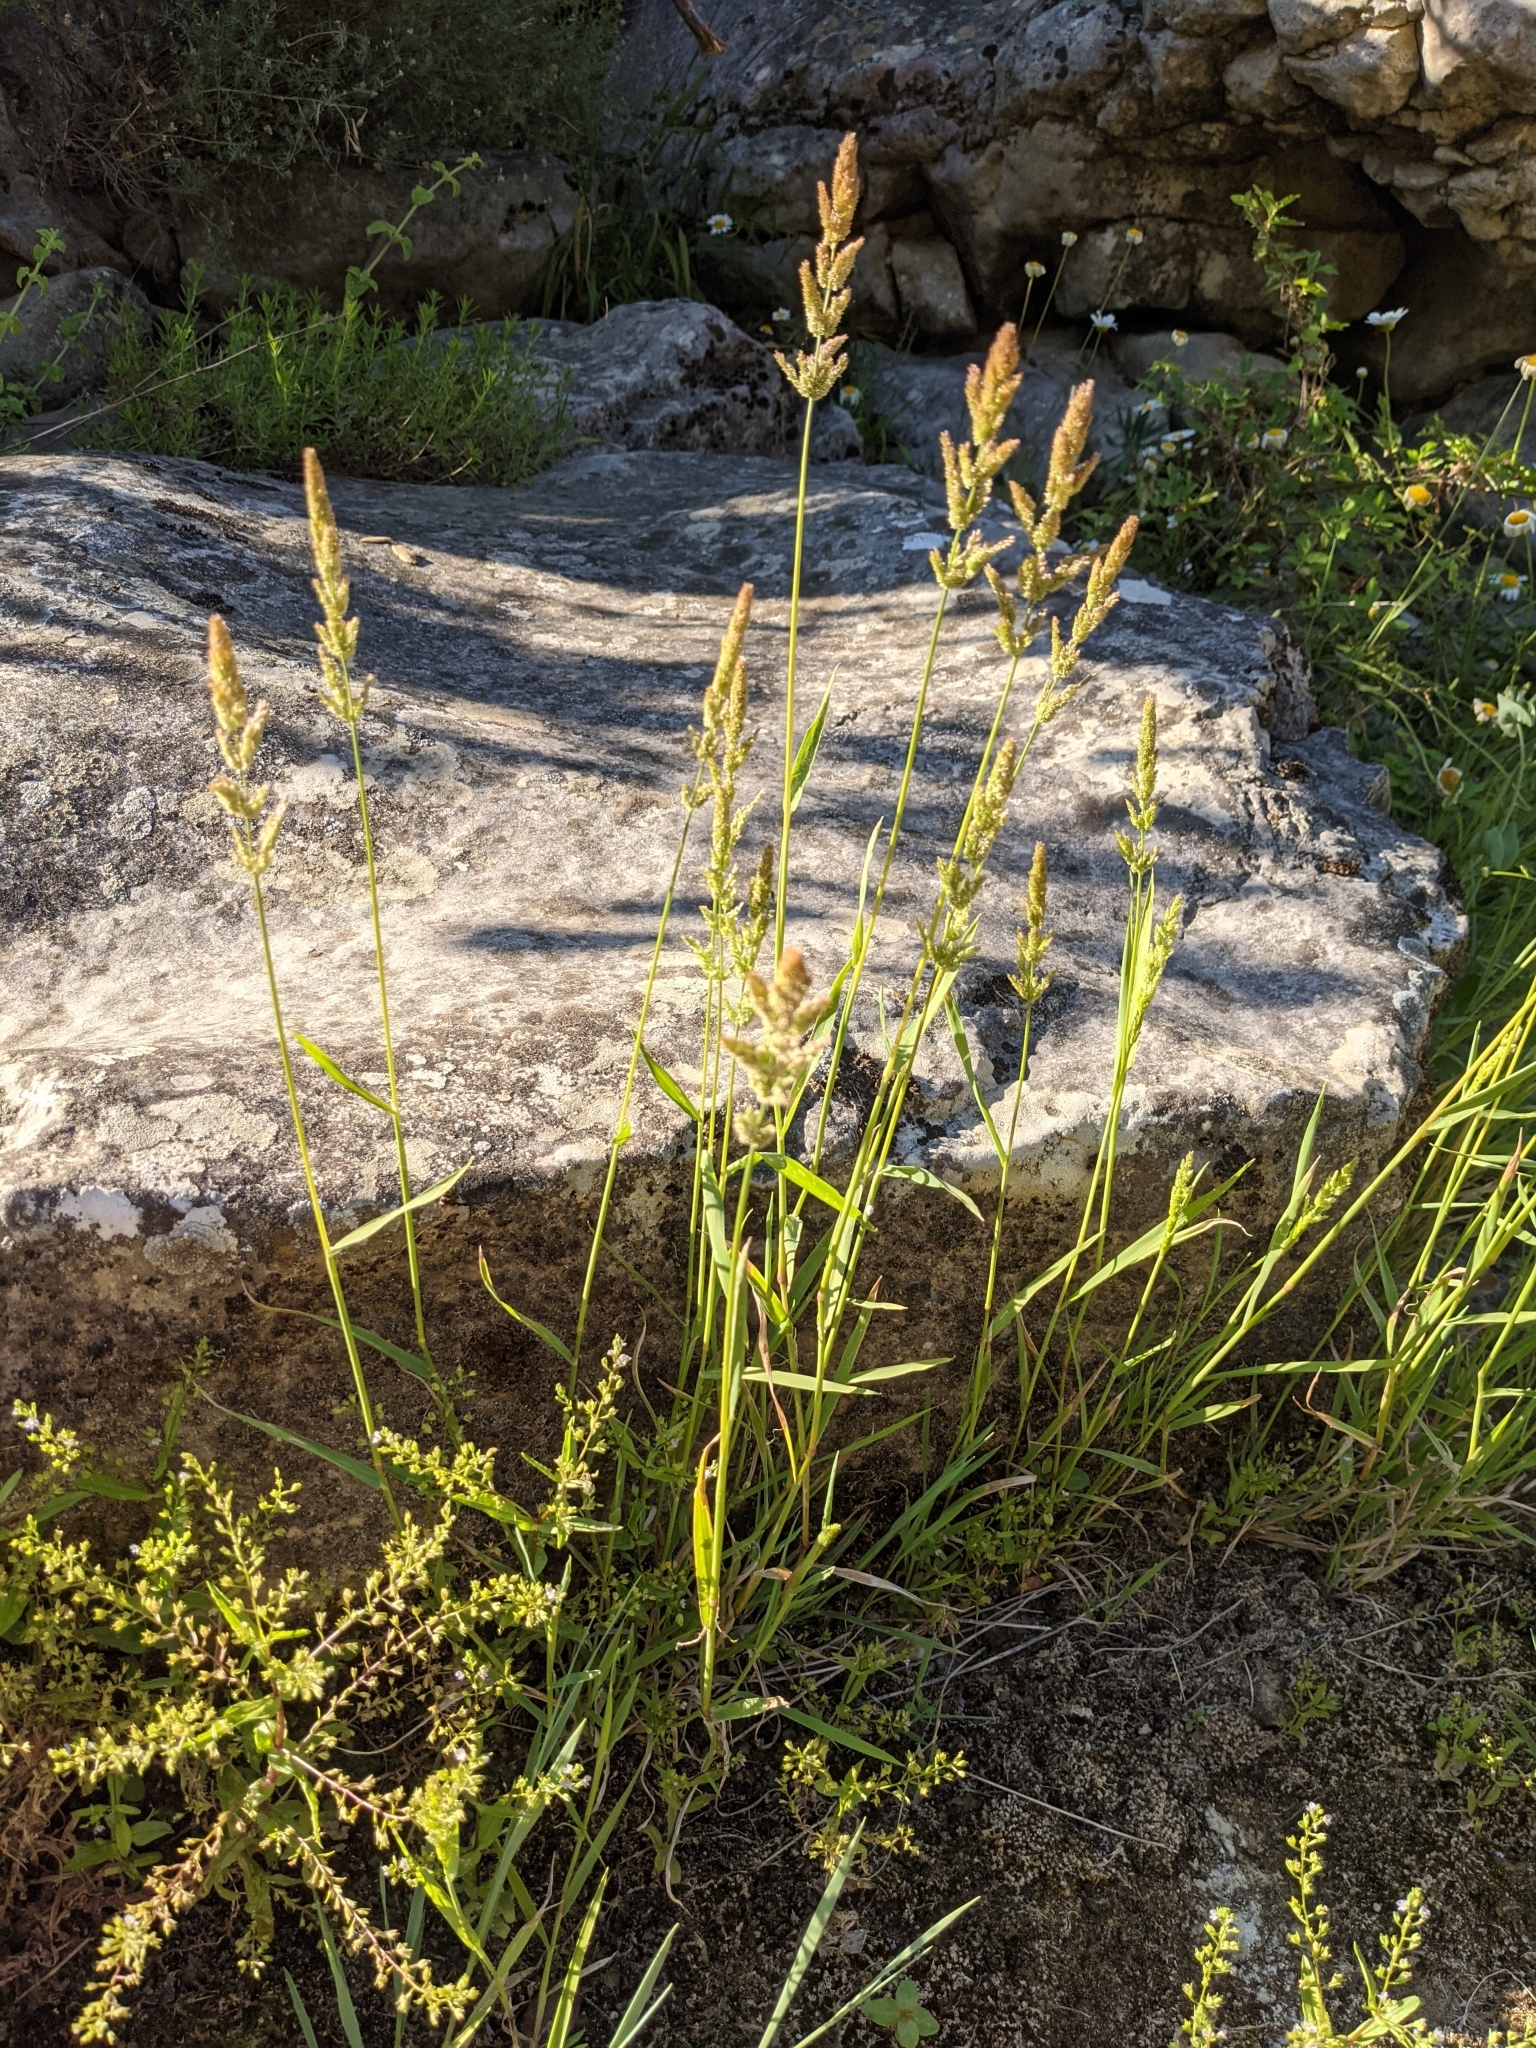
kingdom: Plantae
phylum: Tracheophyta
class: Liliopsida
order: Poales
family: Poaceae
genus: Polypogon
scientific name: Polypogon viridis
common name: Water bent
